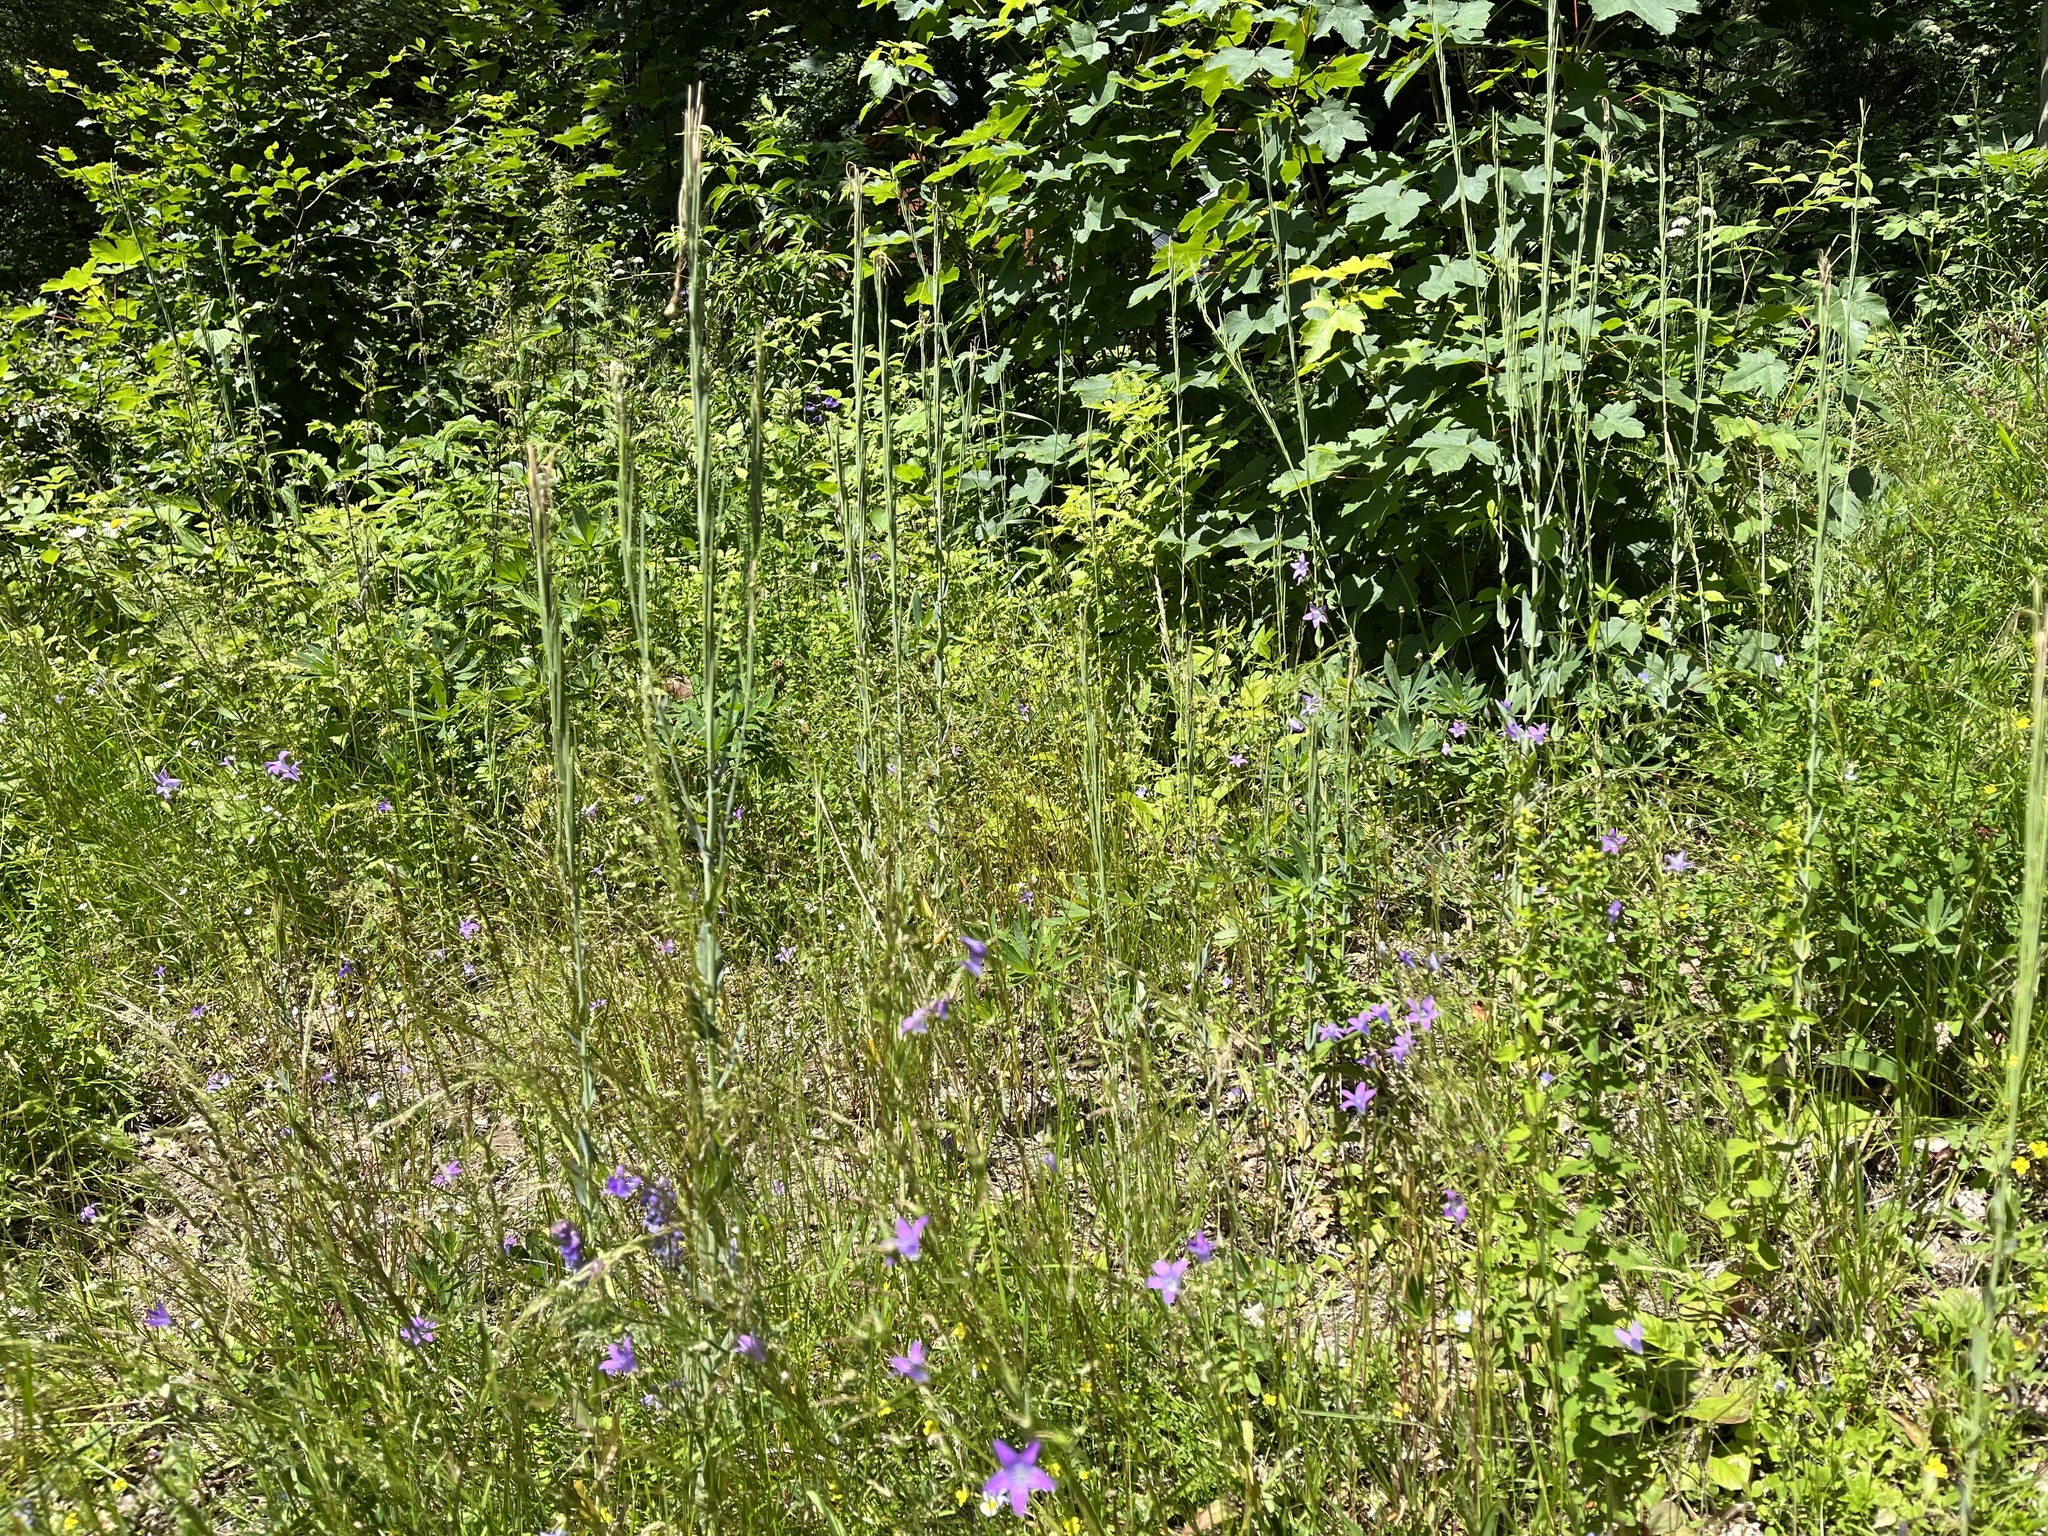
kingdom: Plantae
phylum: Tracheophyta
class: Magnoliopsida
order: Brassicales
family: Brassicaceae
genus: Turritis
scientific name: Turritis glabra
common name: Tower rockcress
